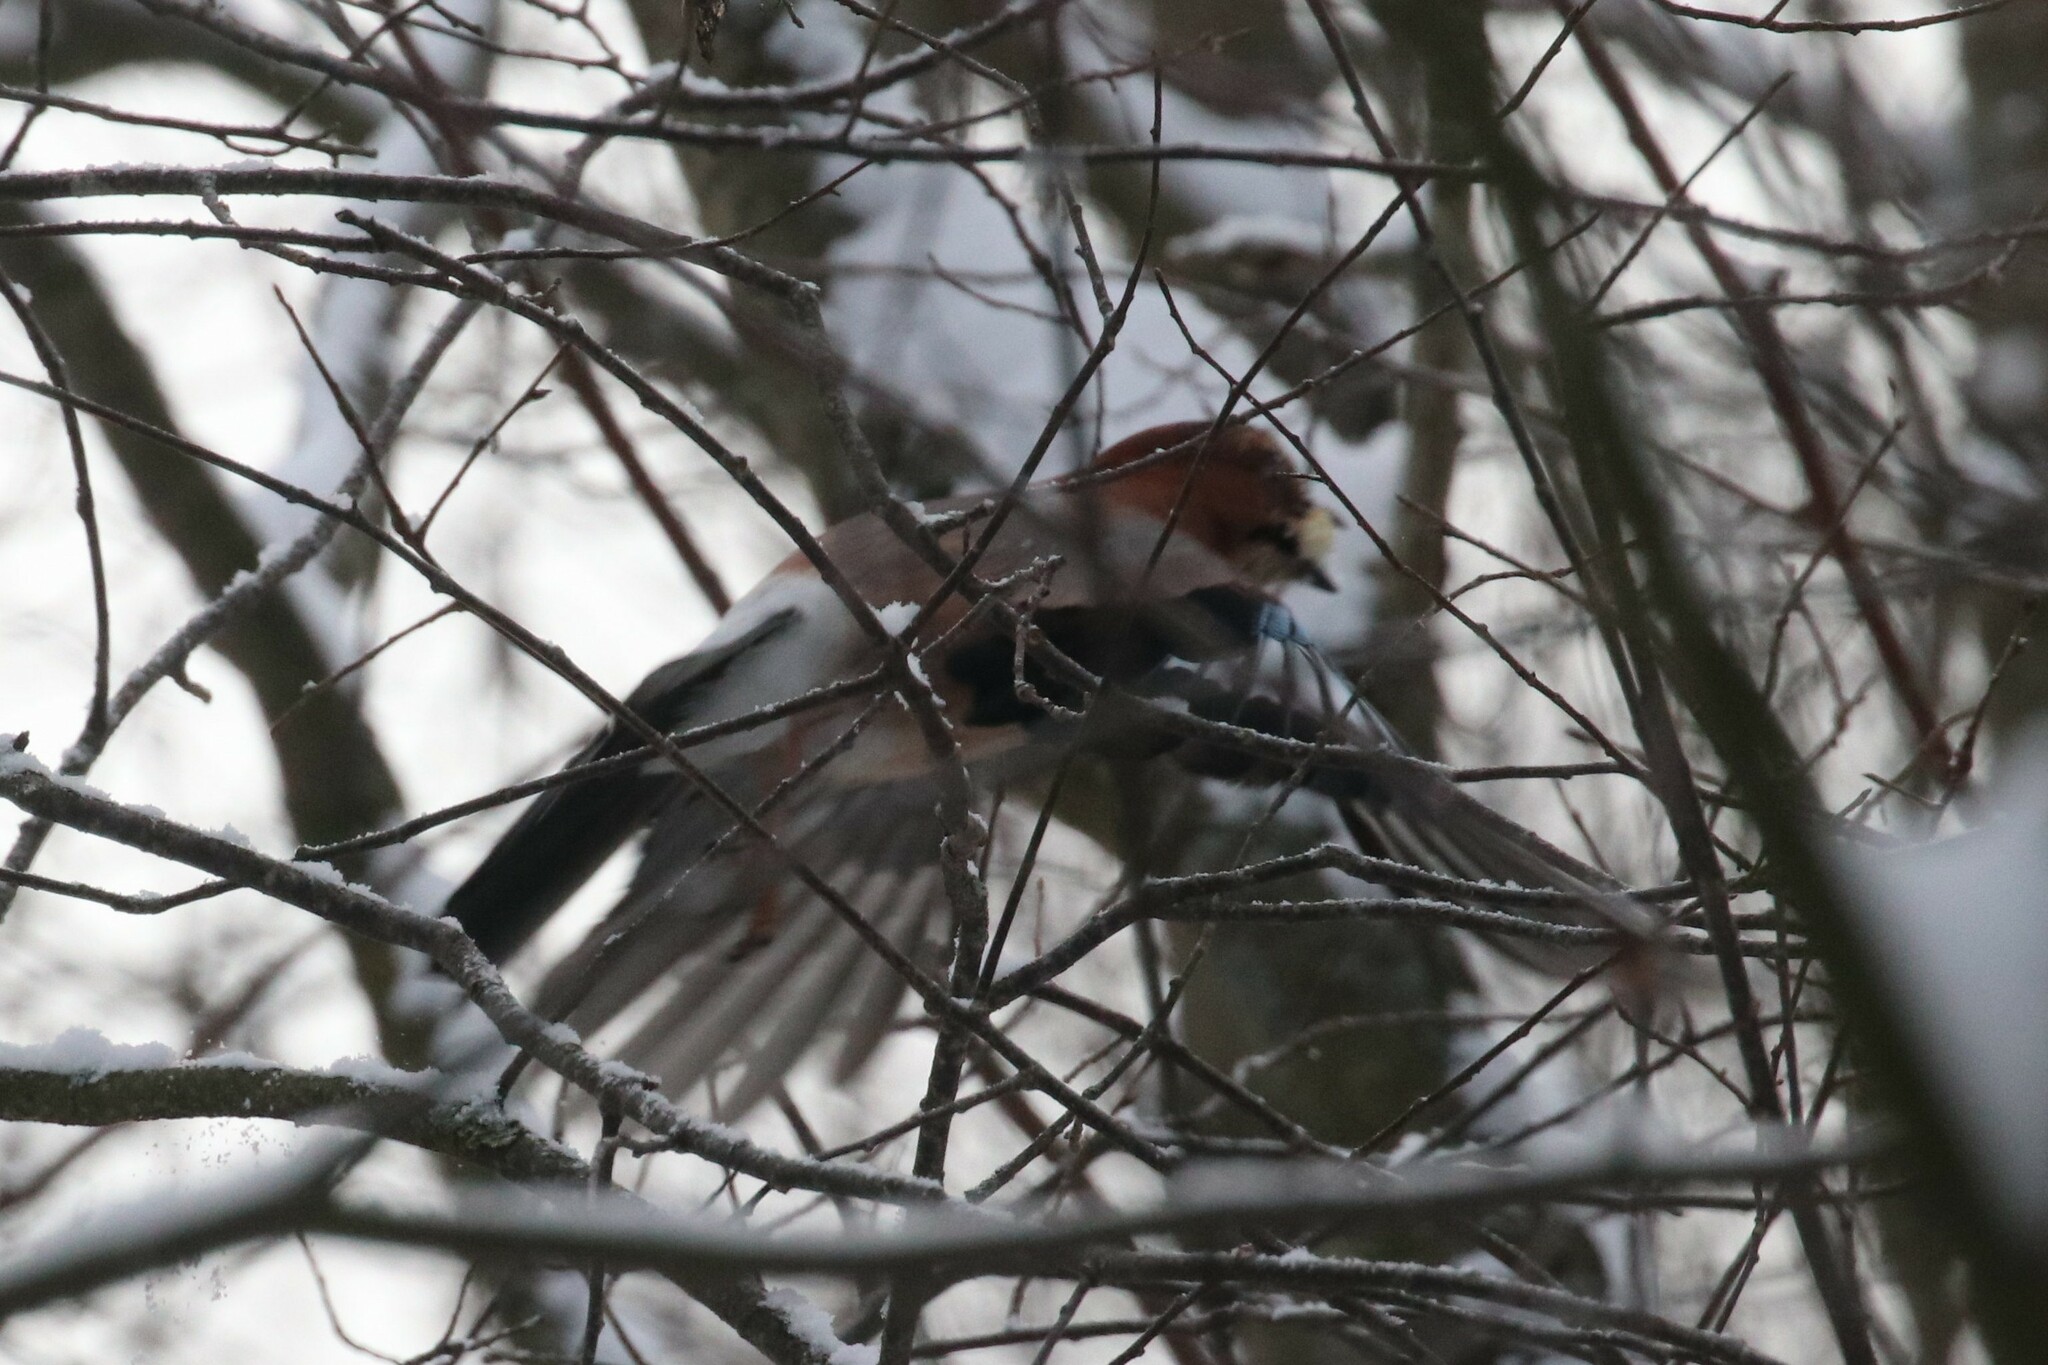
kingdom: Animalia
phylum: Chordata
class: Aves
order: Passeriformes
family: Corvidae
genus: Garrulus
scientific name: Garrulus glandarius
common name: Eurasian jay
